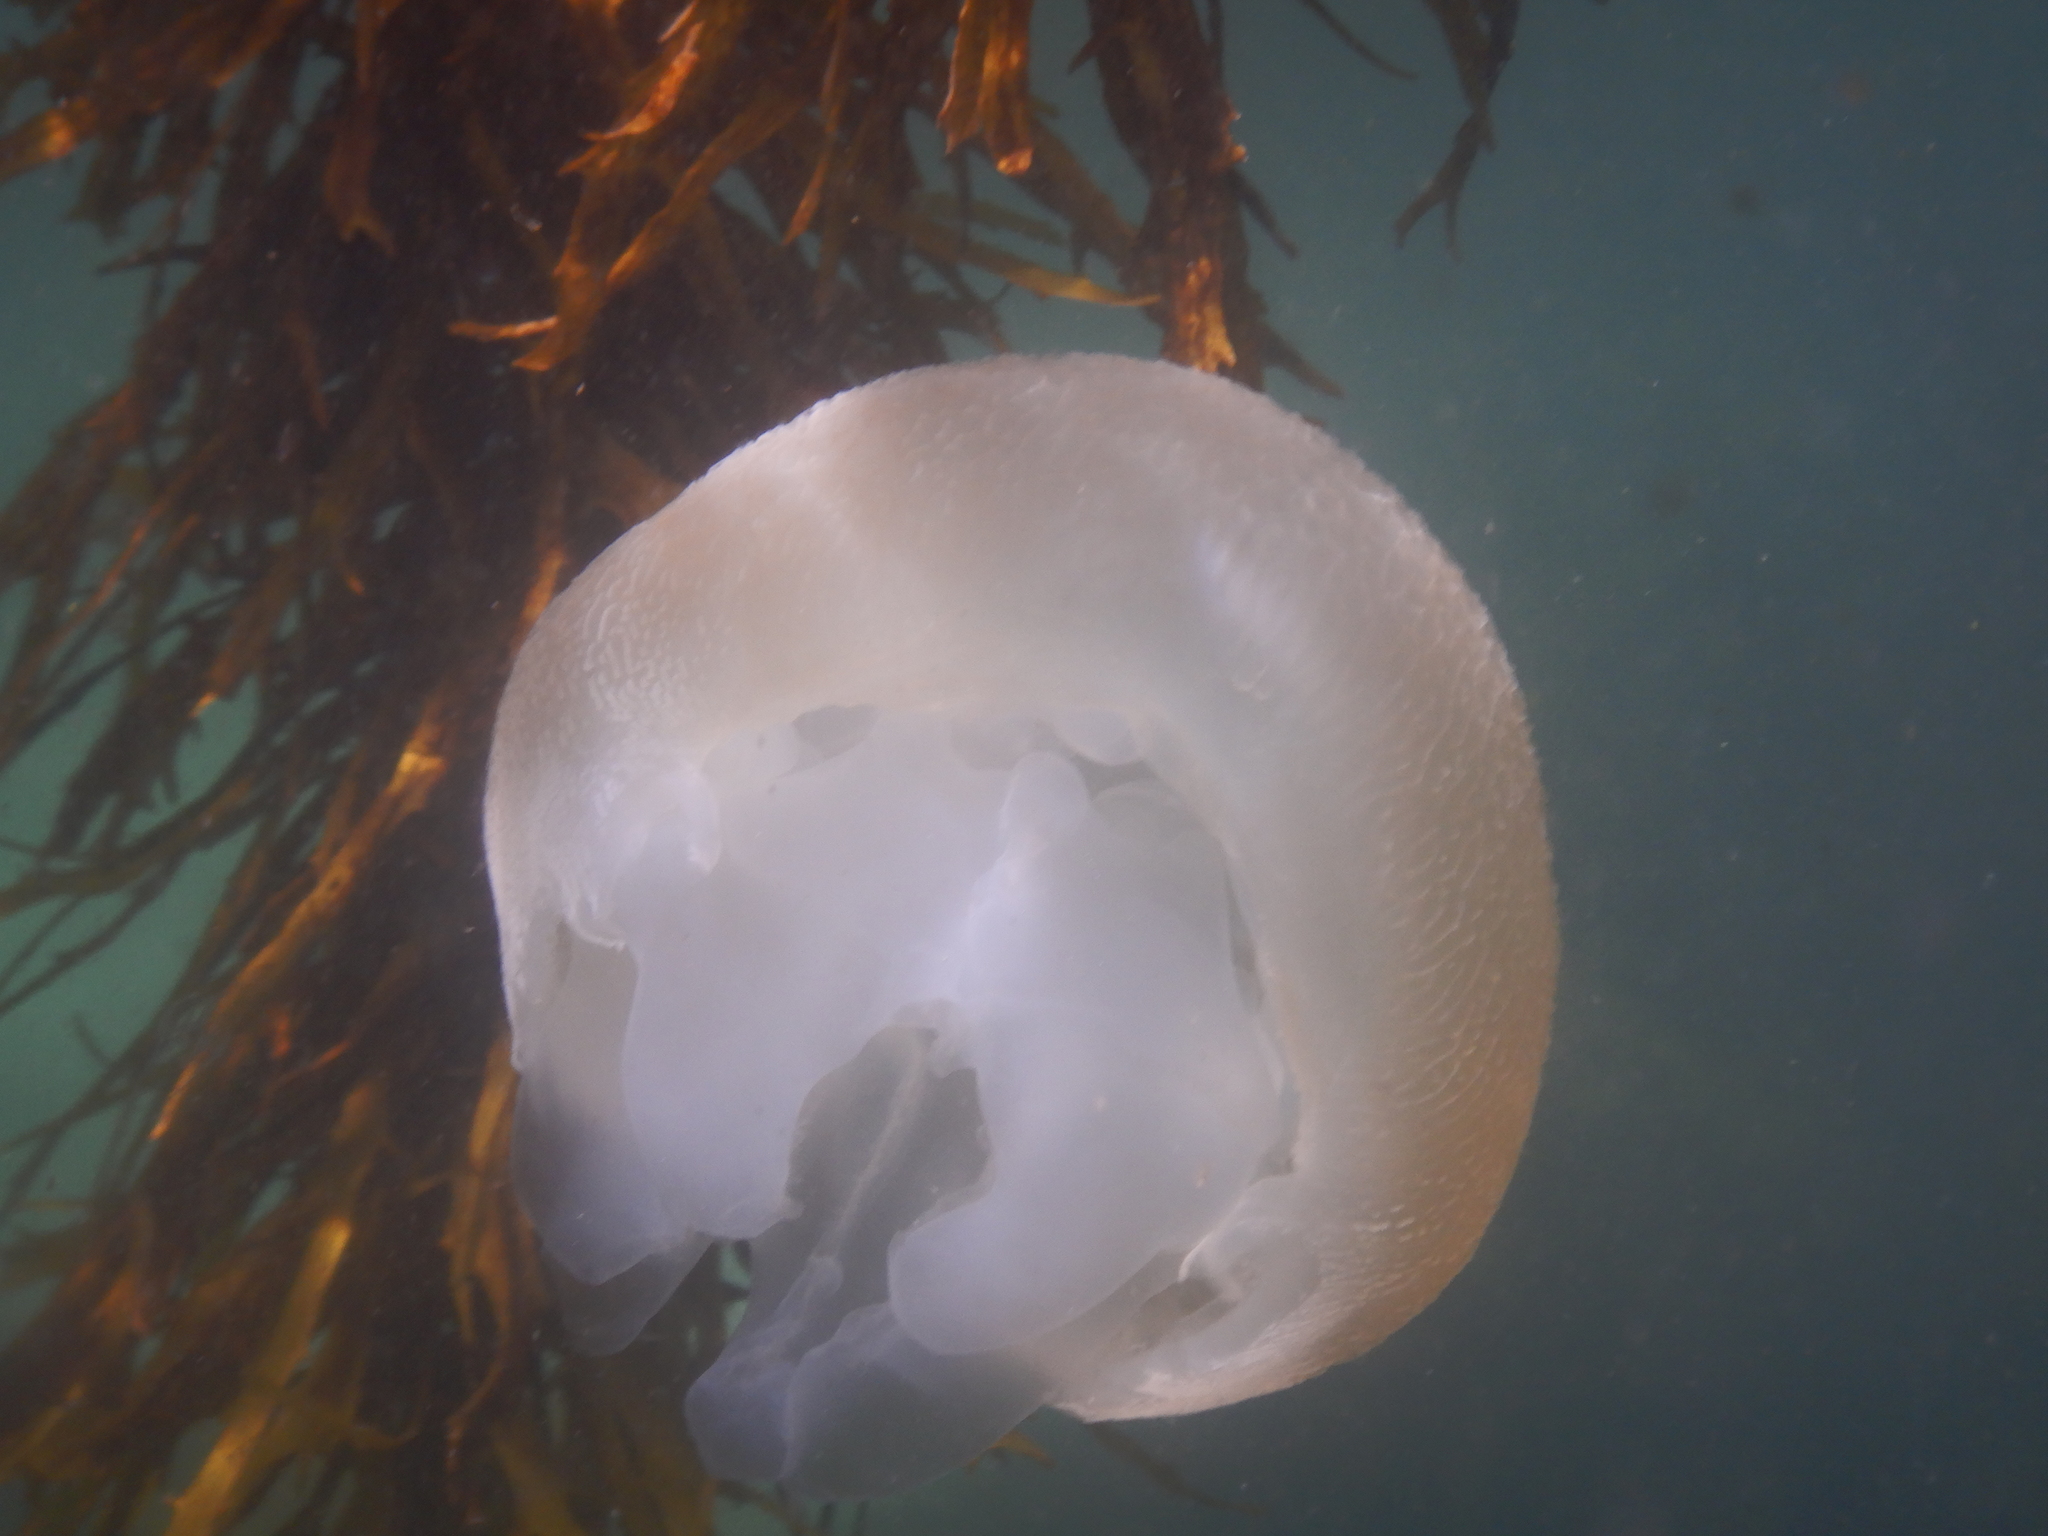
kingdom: Animalia
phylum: Cnidaria
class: Scyphozoa
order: Rhizostomeae
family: Catostylidae
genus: Catostylus
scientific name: Catostylus mosaicus
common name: Blue blubber
